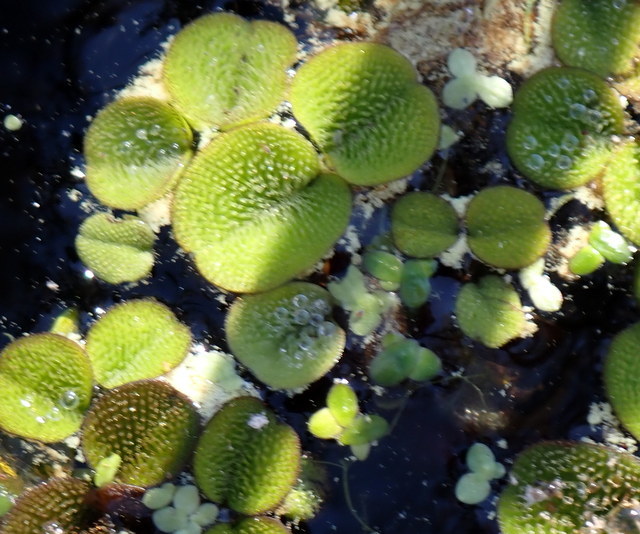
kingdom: Plantae
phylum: Tracheophyta
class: Polypodiopsida
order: Salviniales
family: Salviniaceae
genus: Salvinia
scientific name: Salvinia minima
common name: Water spangles
